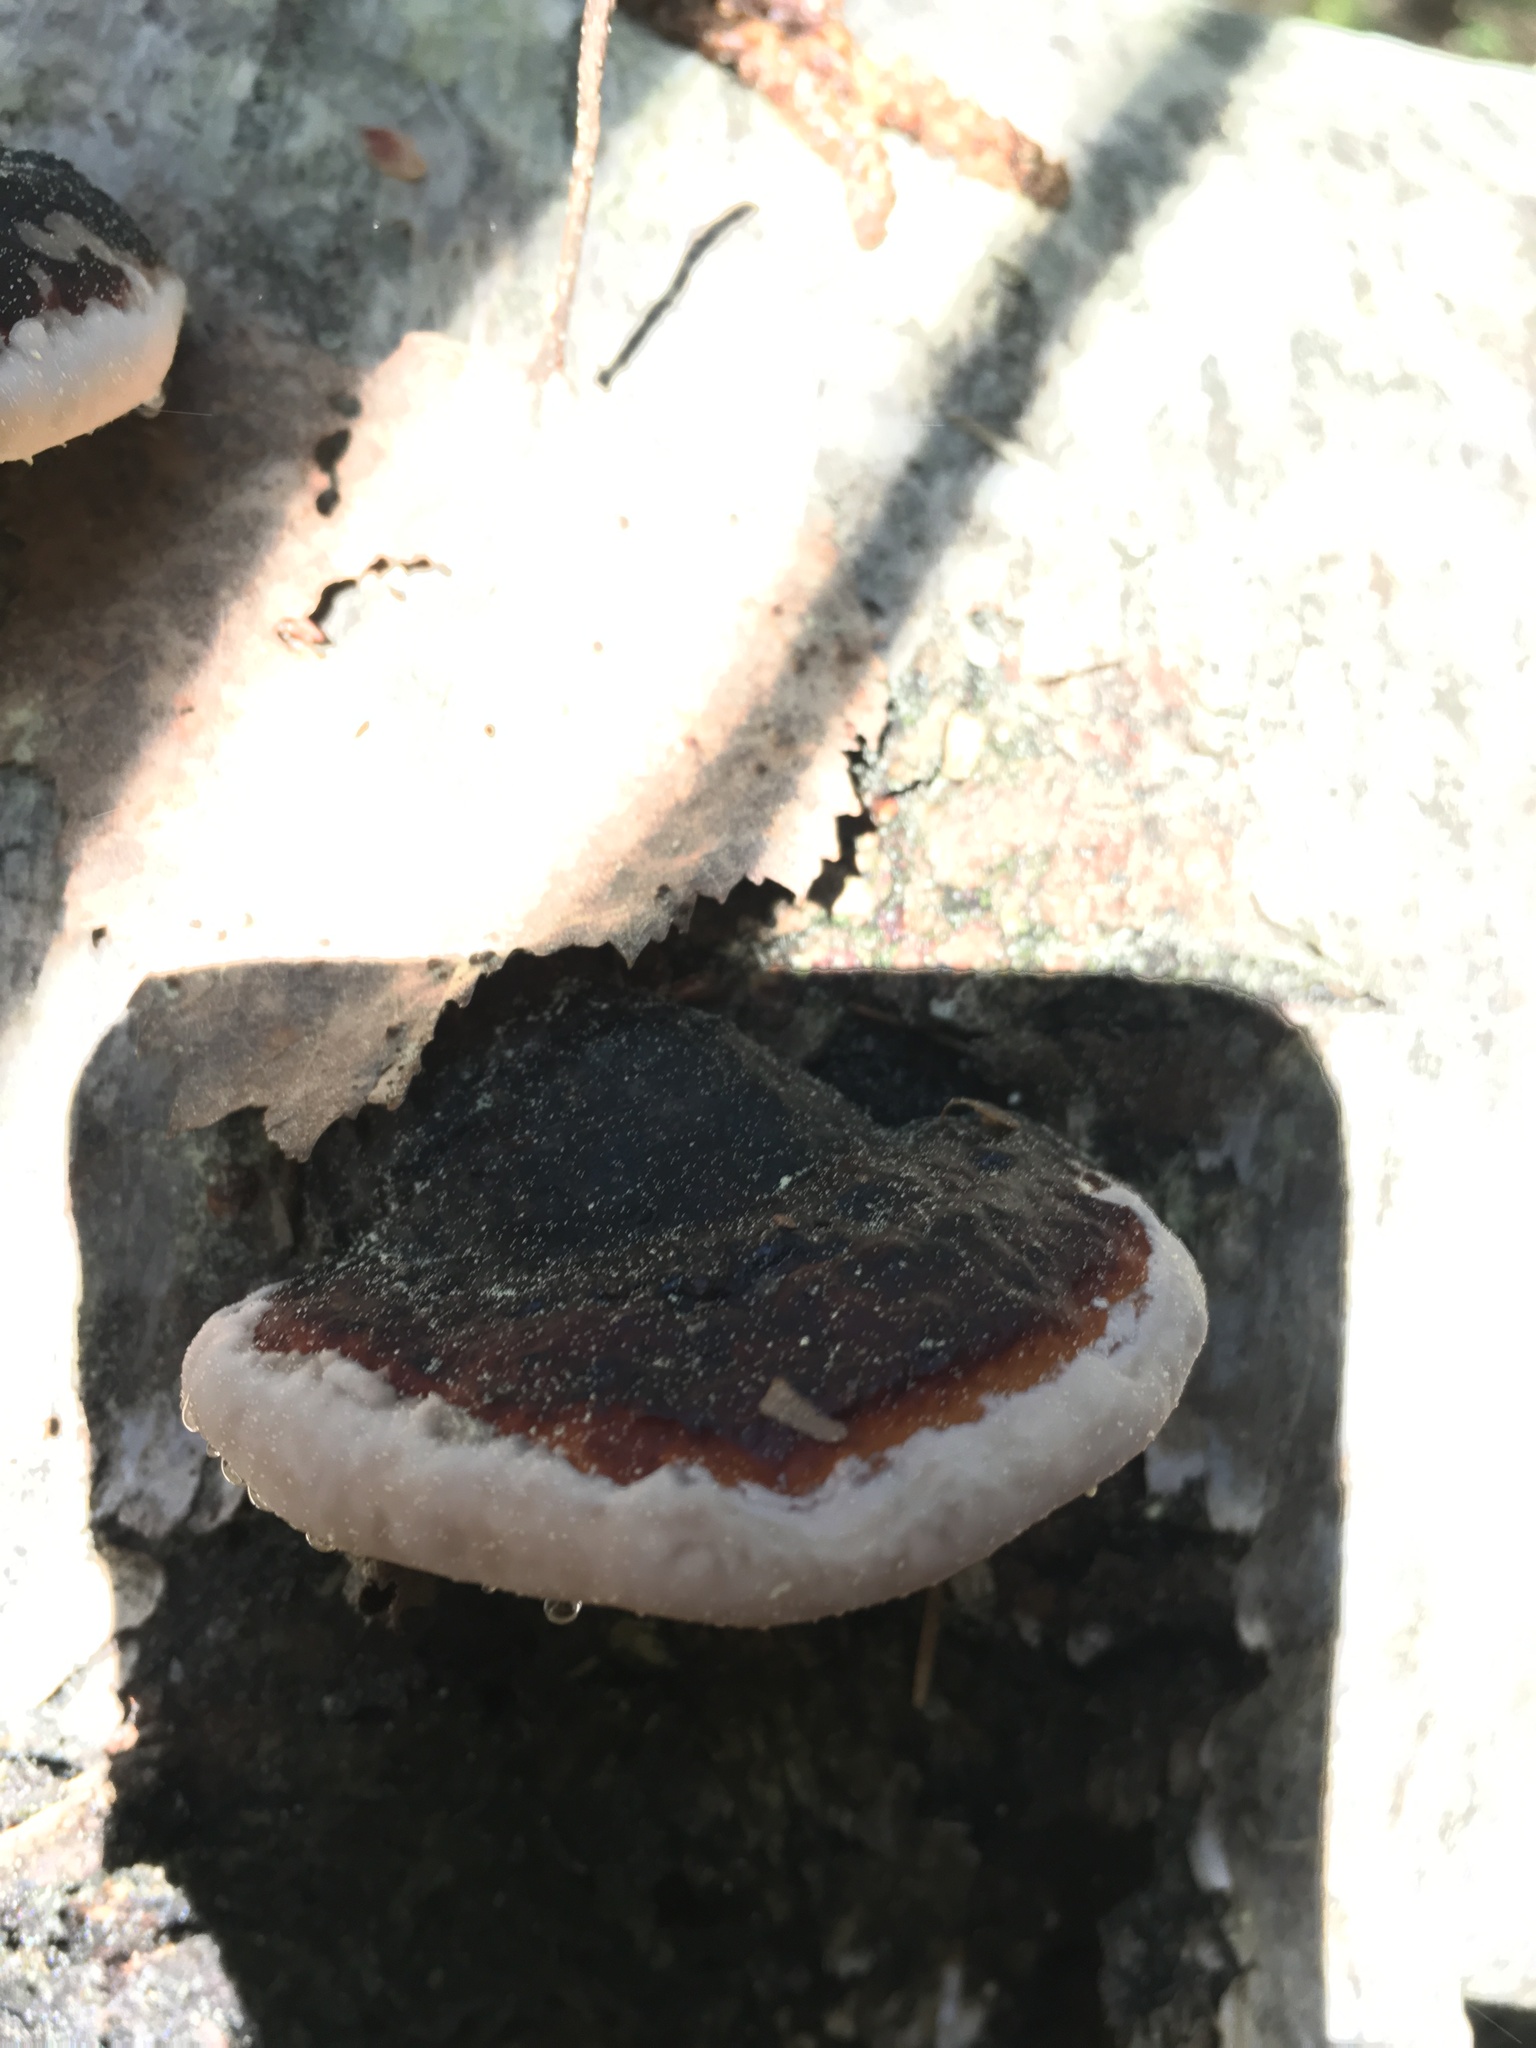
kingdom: Fungi
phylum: Basidiomycota
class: Agaricomycetes
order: Polyporales
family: Fomitopsidaceae
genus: Fomitopsis
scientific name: Fomitopsis pinicola
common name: Red-belted bracket
